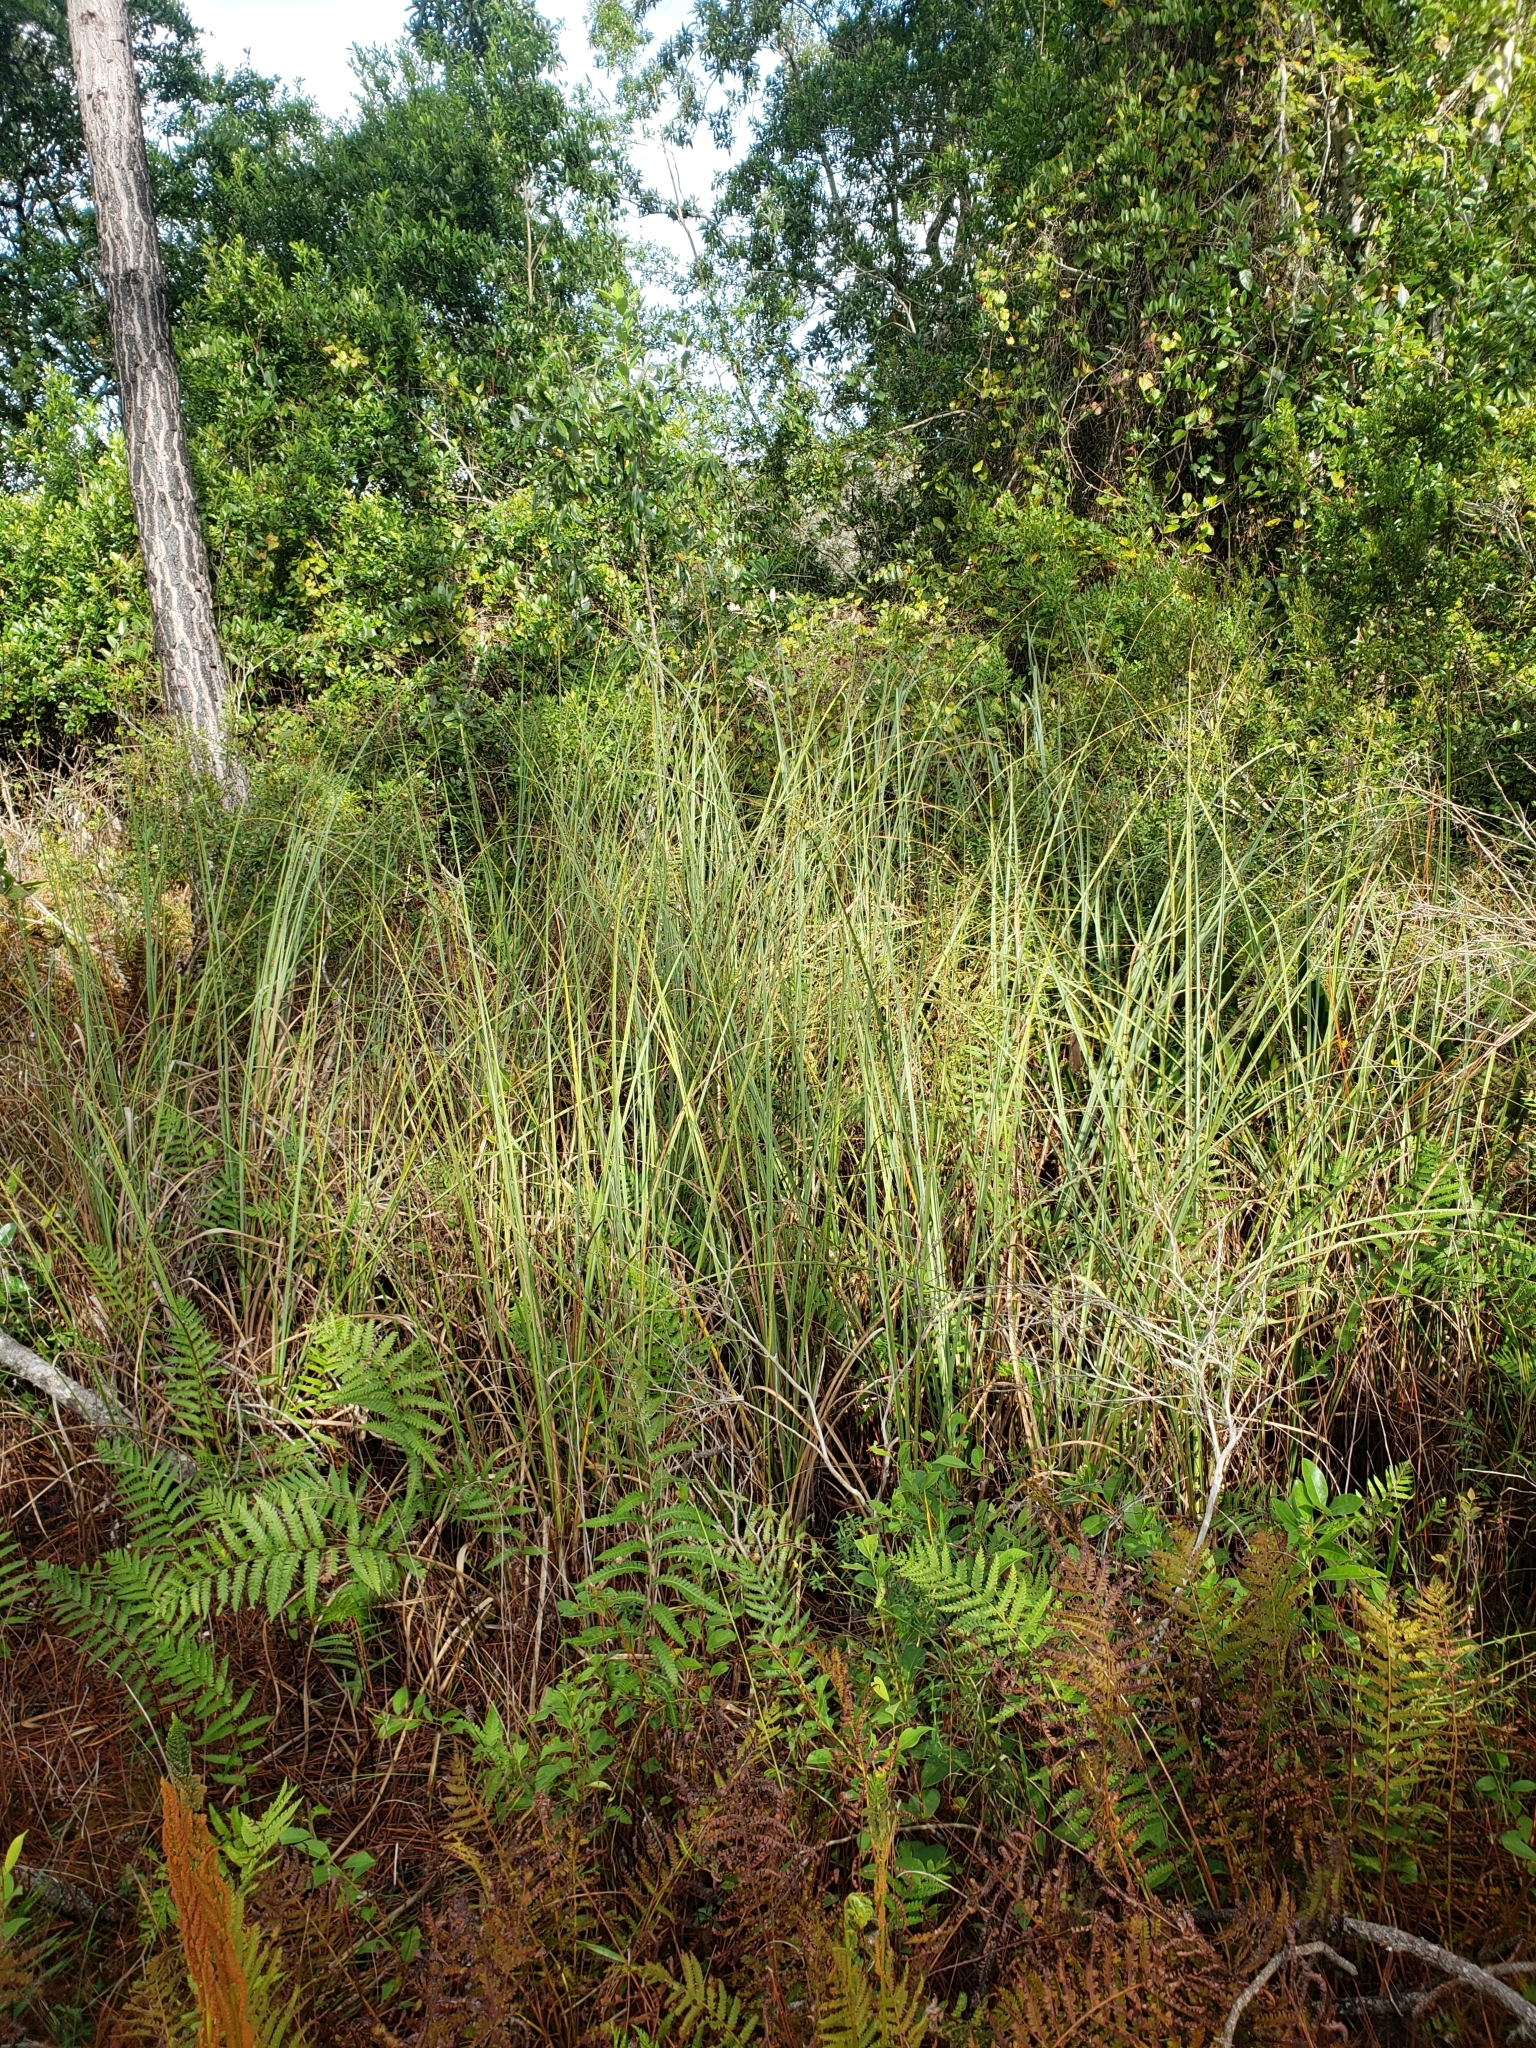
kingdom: Plantae
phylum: Tracheophyta
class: Liliopsida
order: Poales
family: Cyperaceae
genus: Cladium
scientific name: Cladium mariscus
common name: Great fen-sedge
